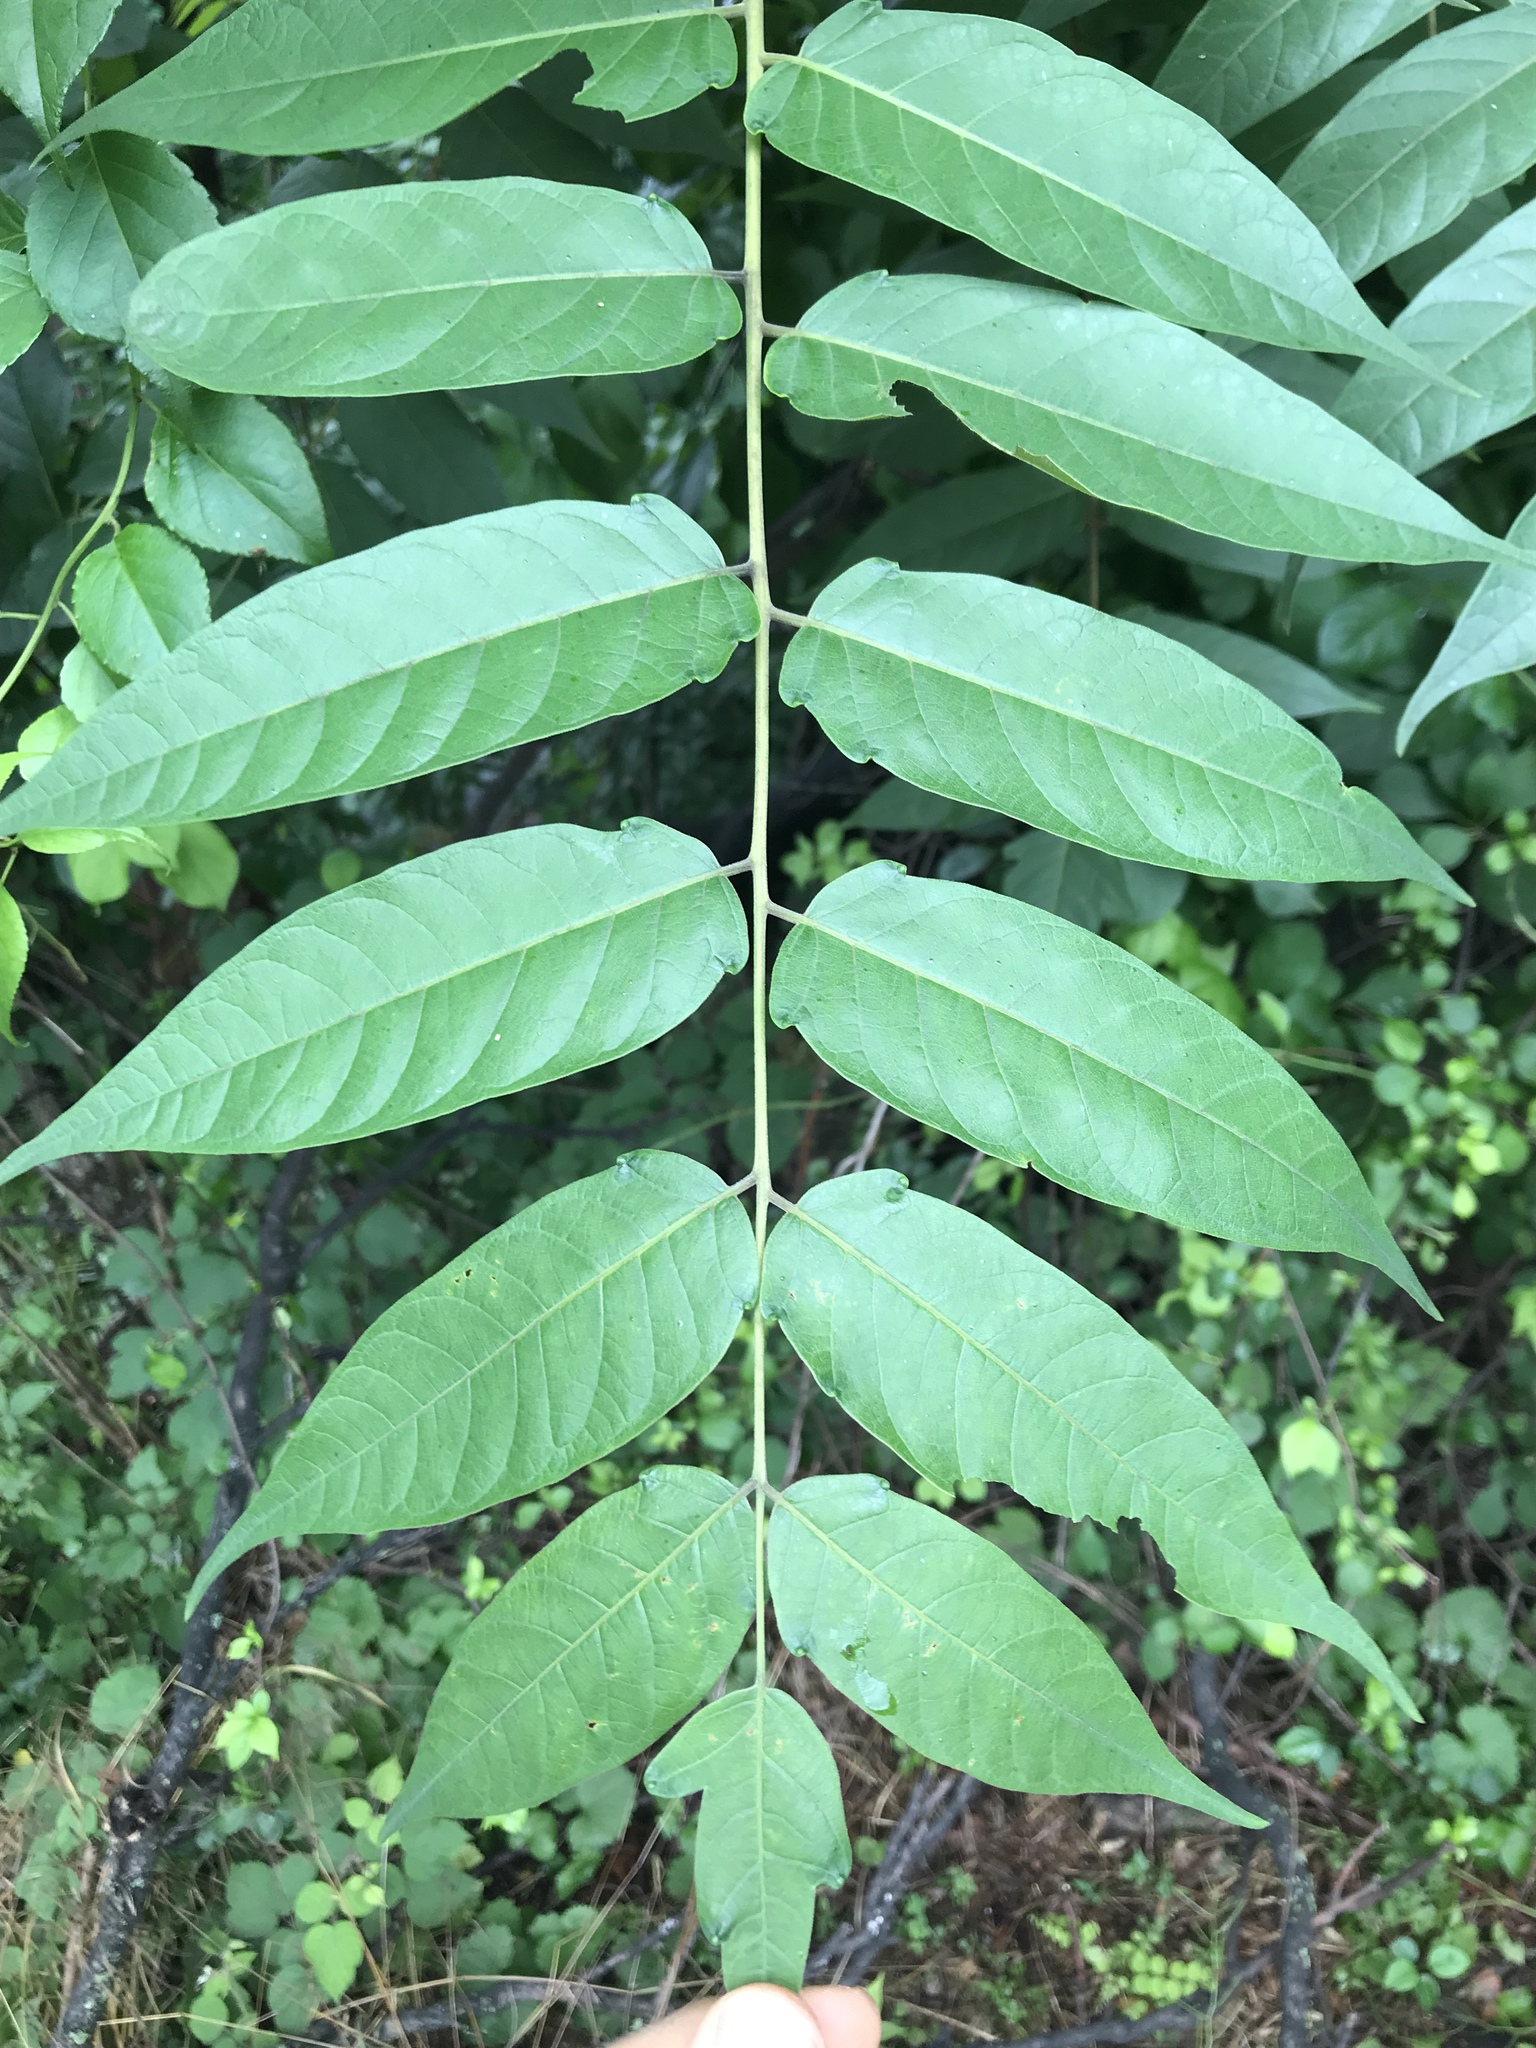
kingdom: Plantae
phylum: Tracheophyta
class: Magnoliopsida
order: Sapindales
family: Simaroubaceae
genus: Ailanthus
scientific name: Ailanthus altissima
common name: Tree-of-heaven
